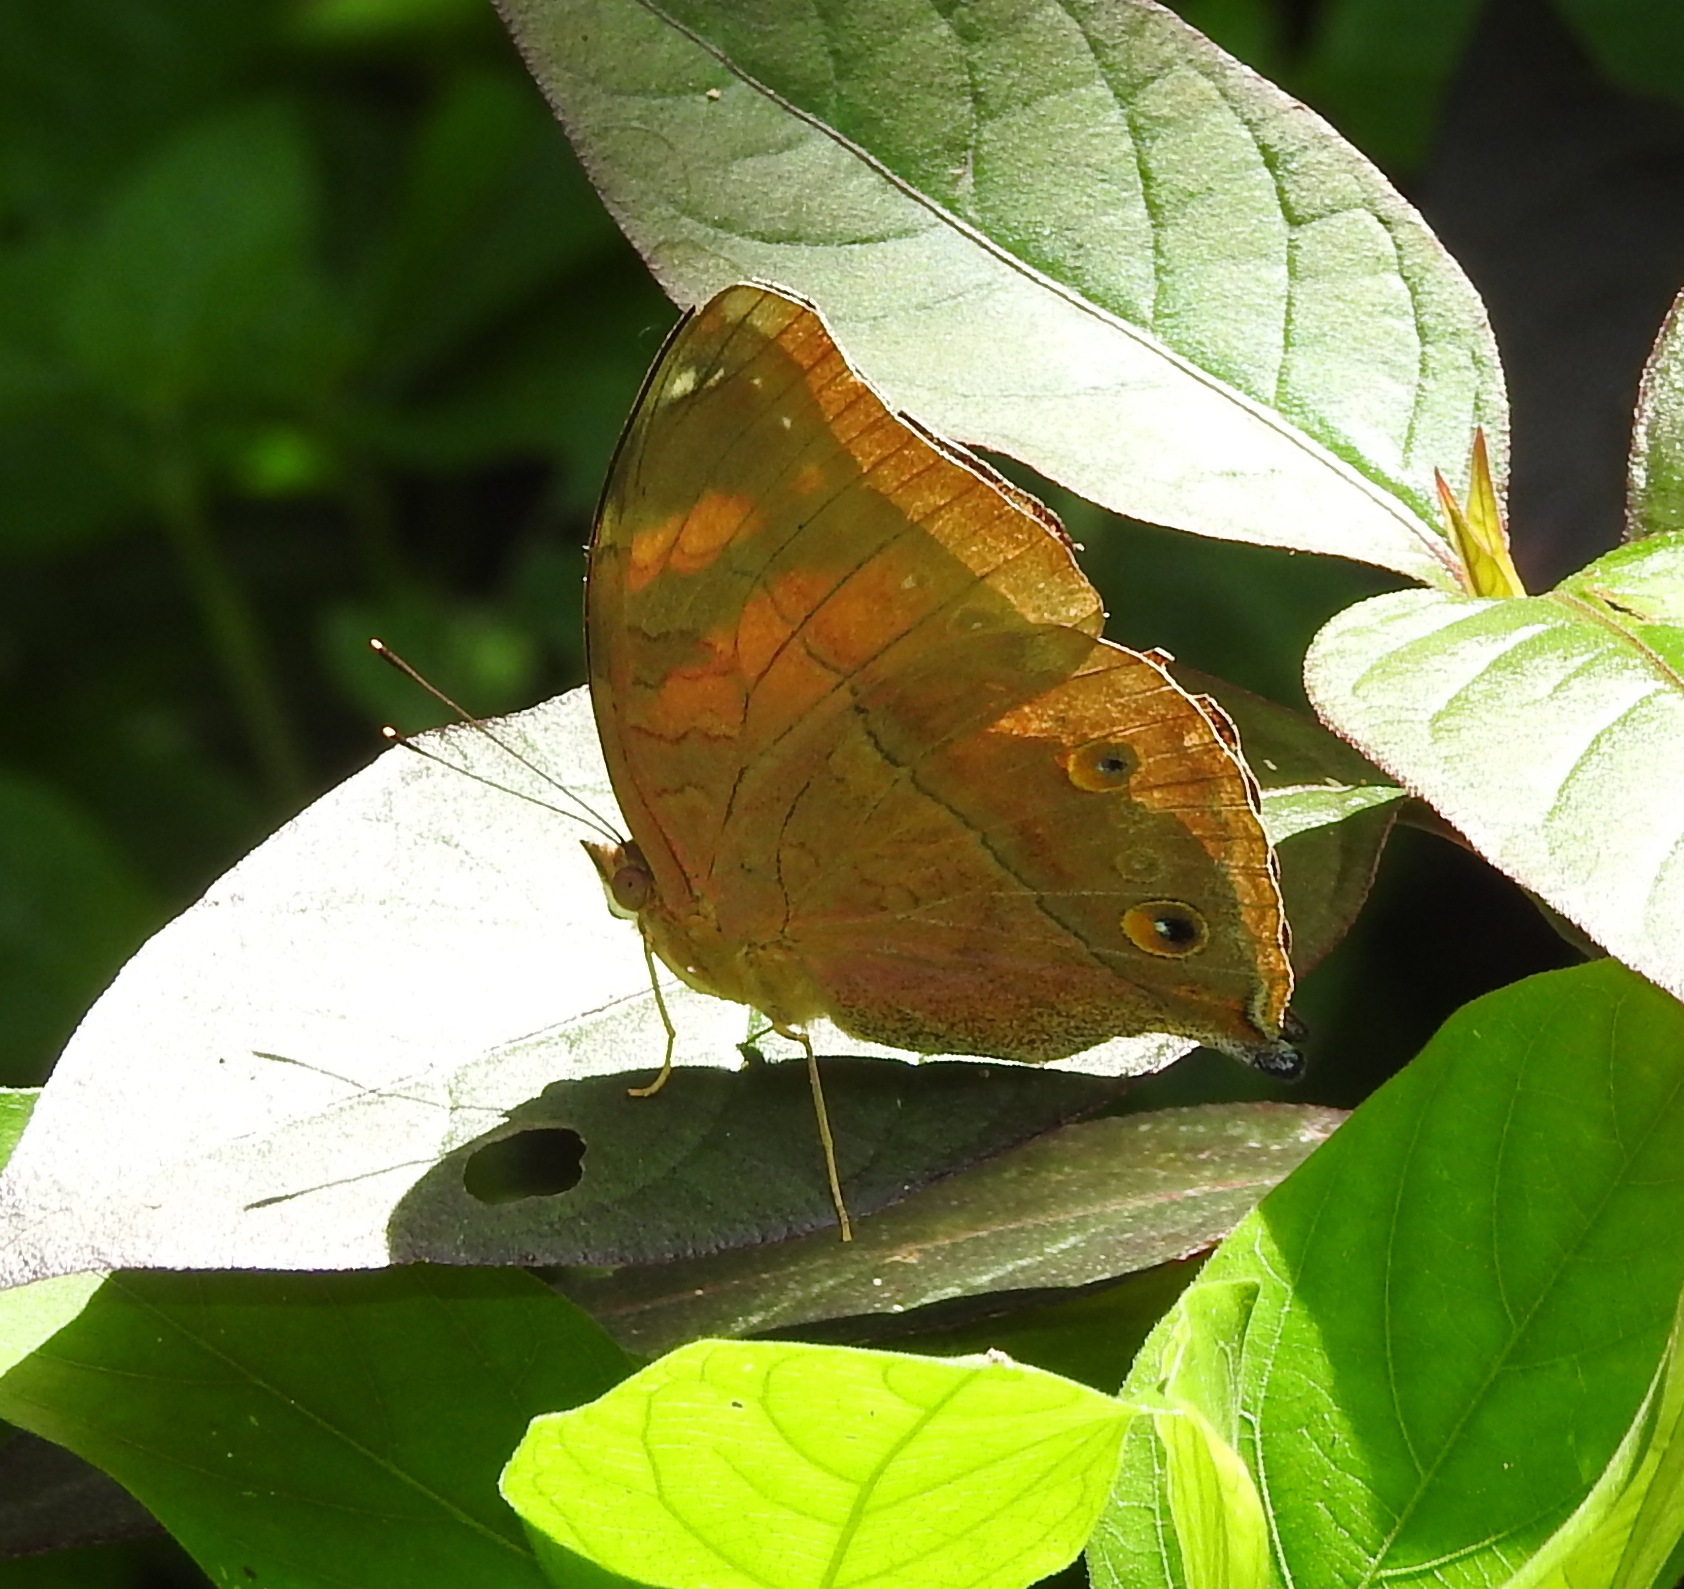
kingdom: Animalia
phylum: Arthropoda
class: Insecta
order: Lepidoptera
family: Nymphalidae
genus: Doleschallia
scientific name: Doleschallia bisaltide
